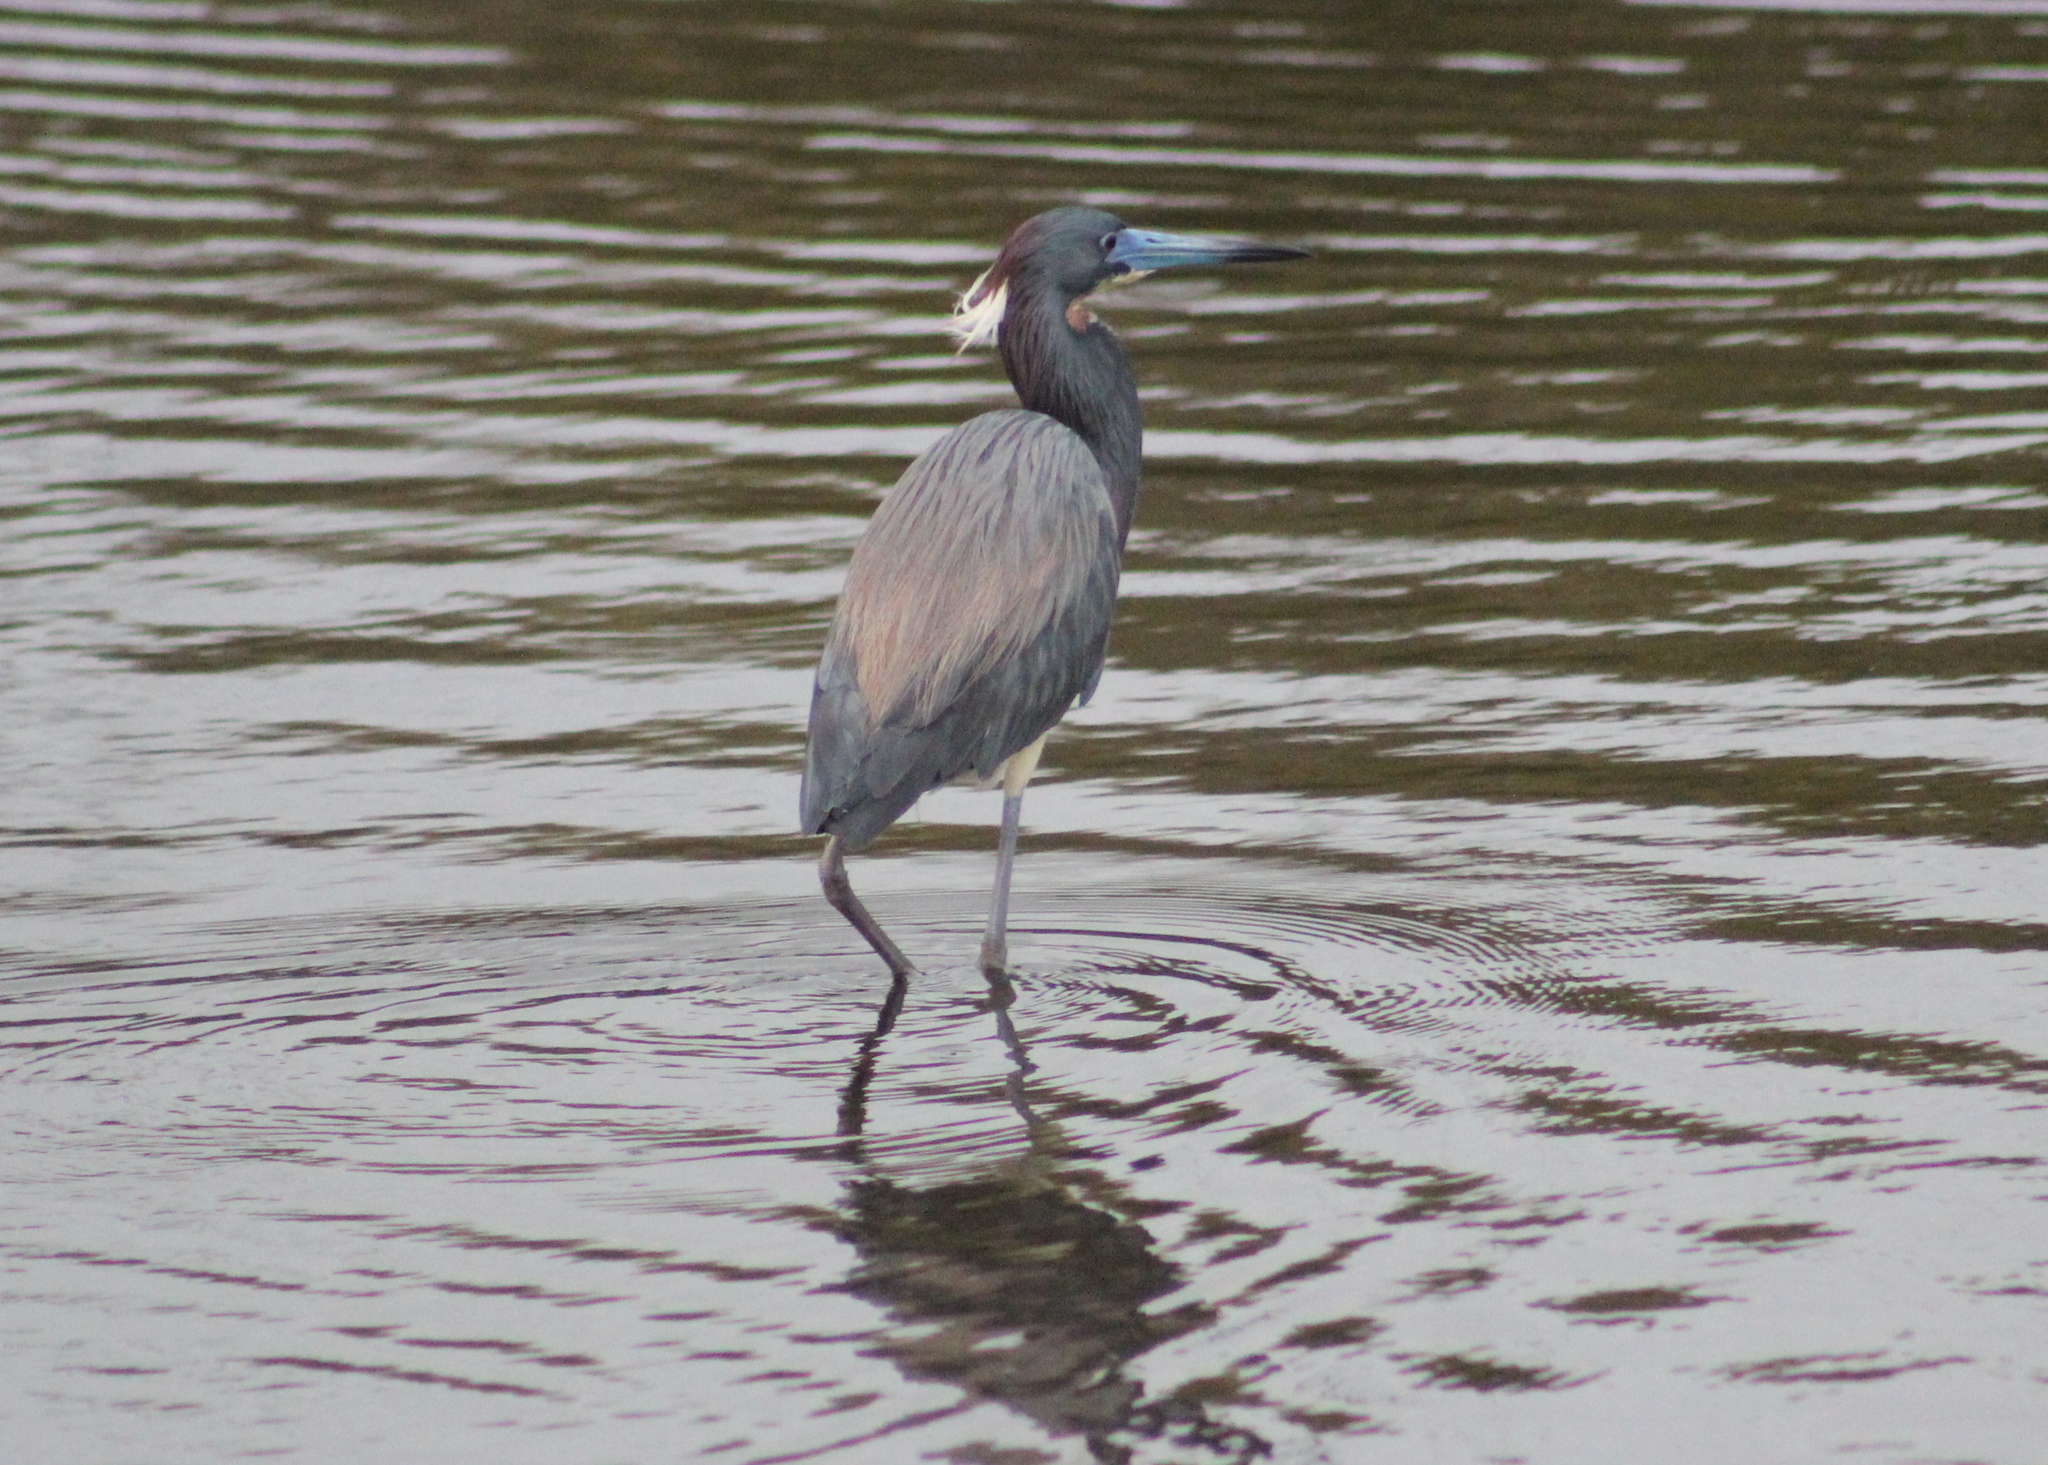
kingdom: Animalia
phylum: Chordata
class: Aves
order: Pelecaniformes
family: Ardeidae
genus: Egretta
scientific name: Egretta tricolor
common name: Tricolored heron
